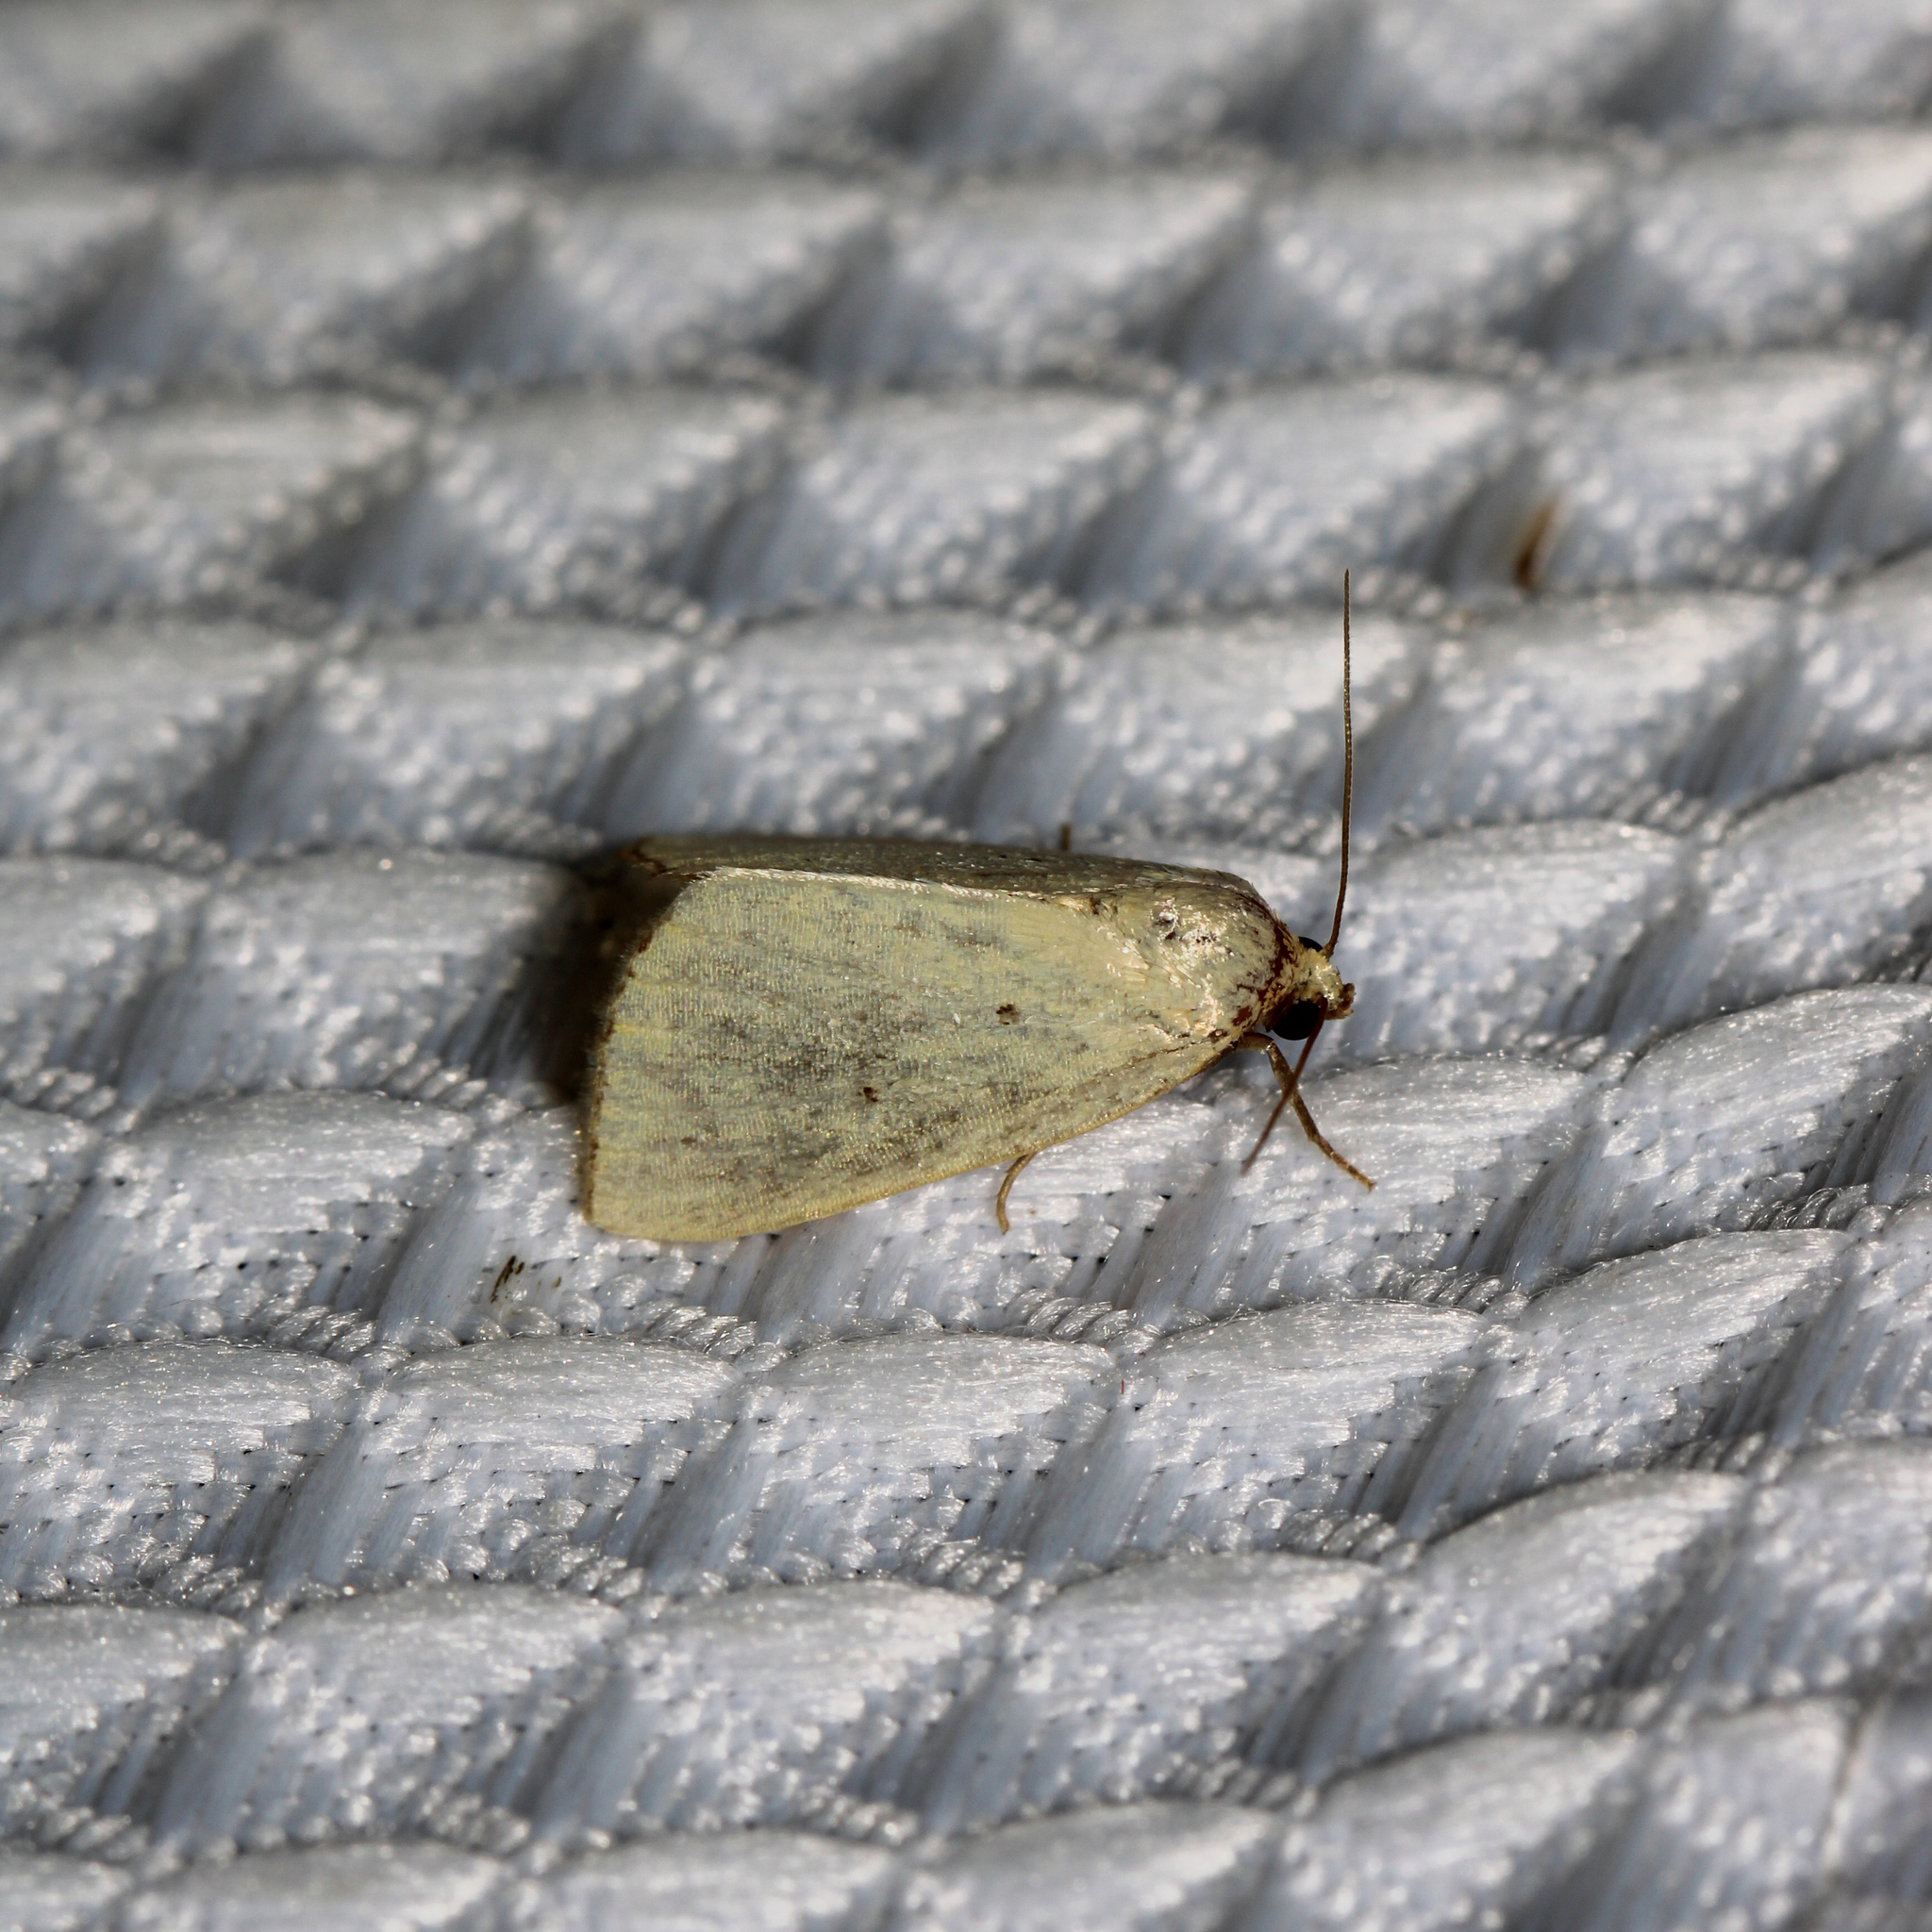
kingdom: Animalia
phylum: Arthropoda
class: Insecta
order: Lepidoptera
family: Noctuidae
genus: Marimatha
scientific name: Marimatha nigrofimbria
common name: Black-bordered lemon moth
